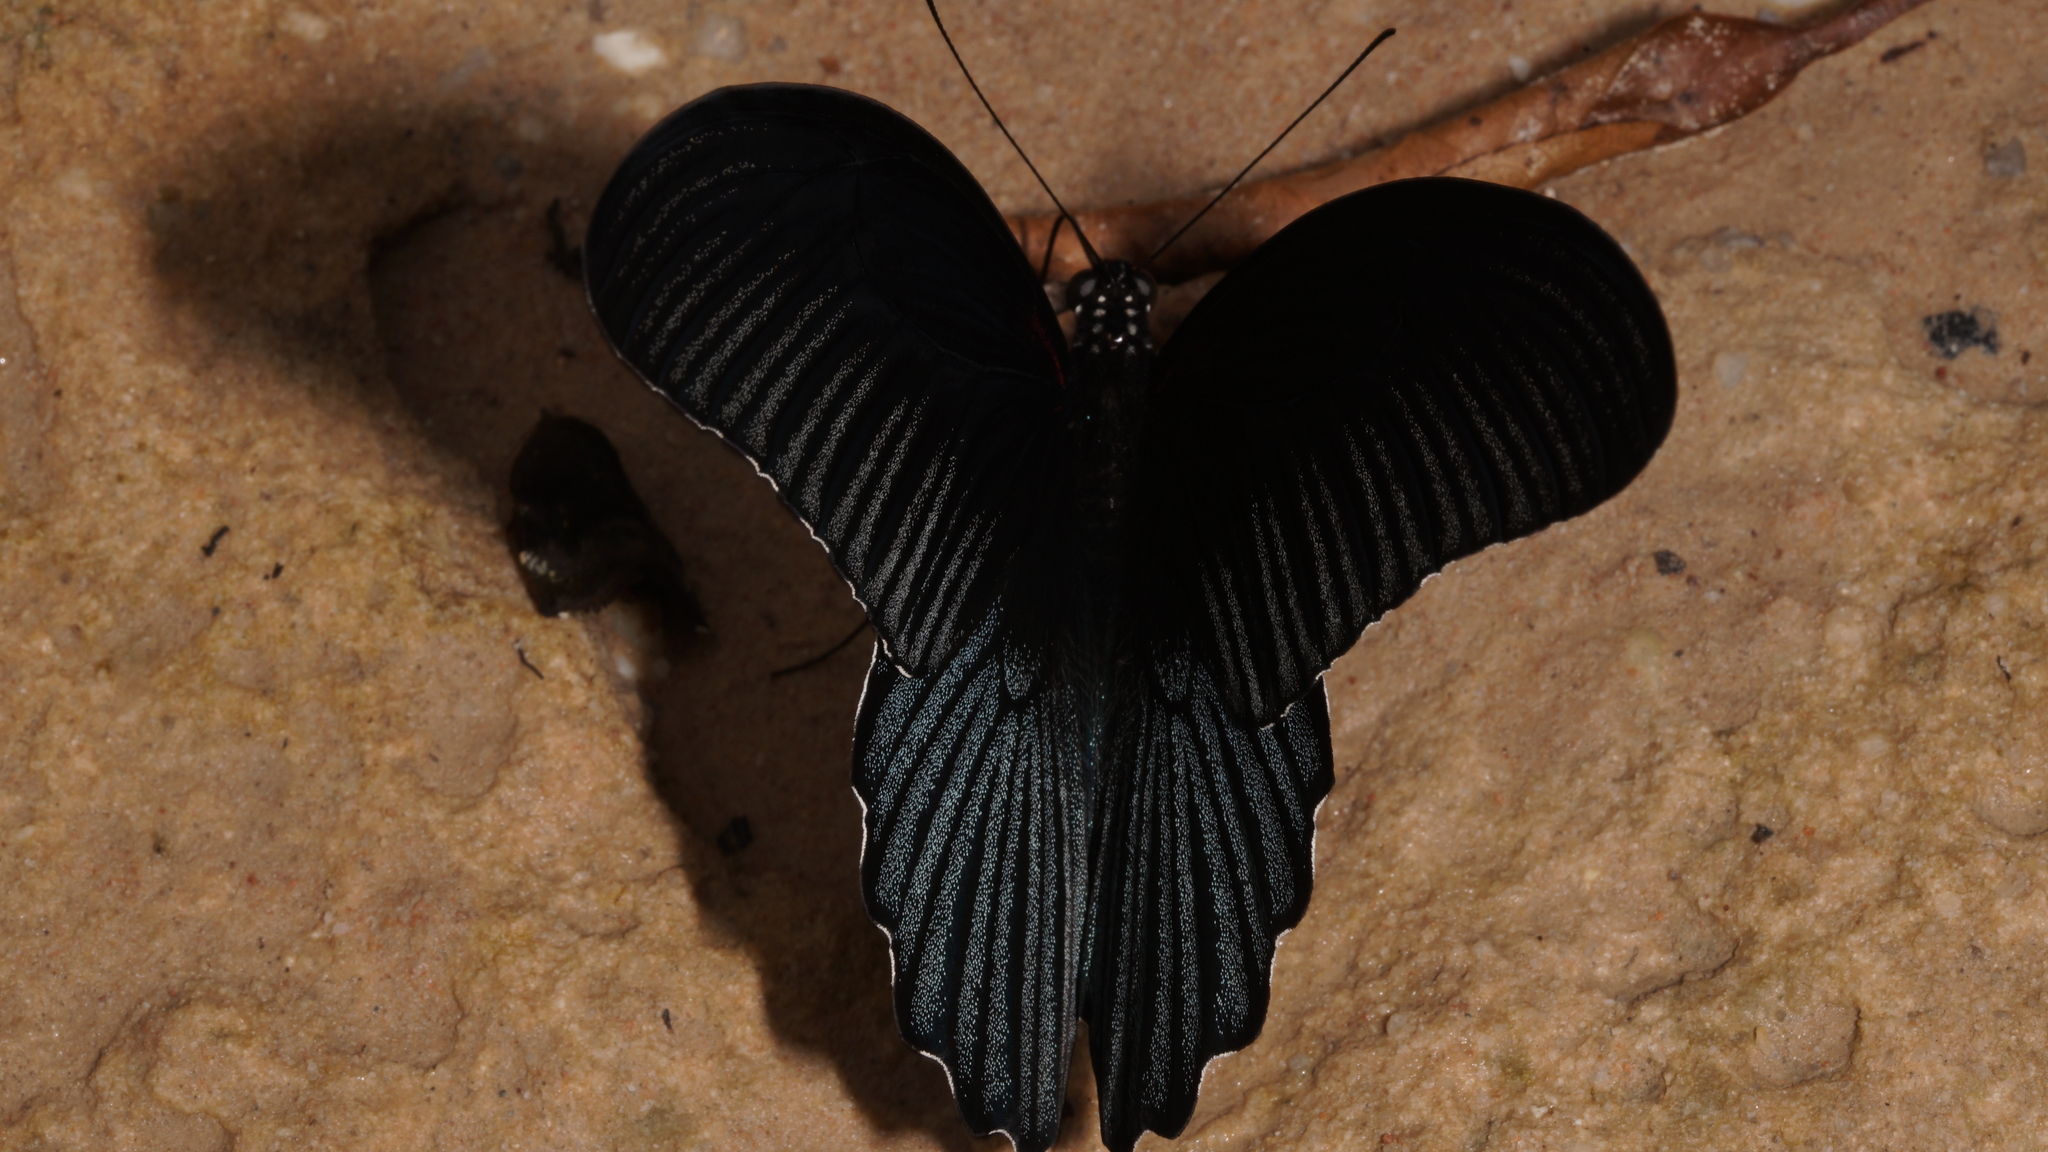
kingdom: Animalia
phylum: Arthropoda
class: Insecta
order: Lepidoptera
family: Papilionidae
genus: Papilio
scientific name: Papilio memnon
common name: Great mormon
